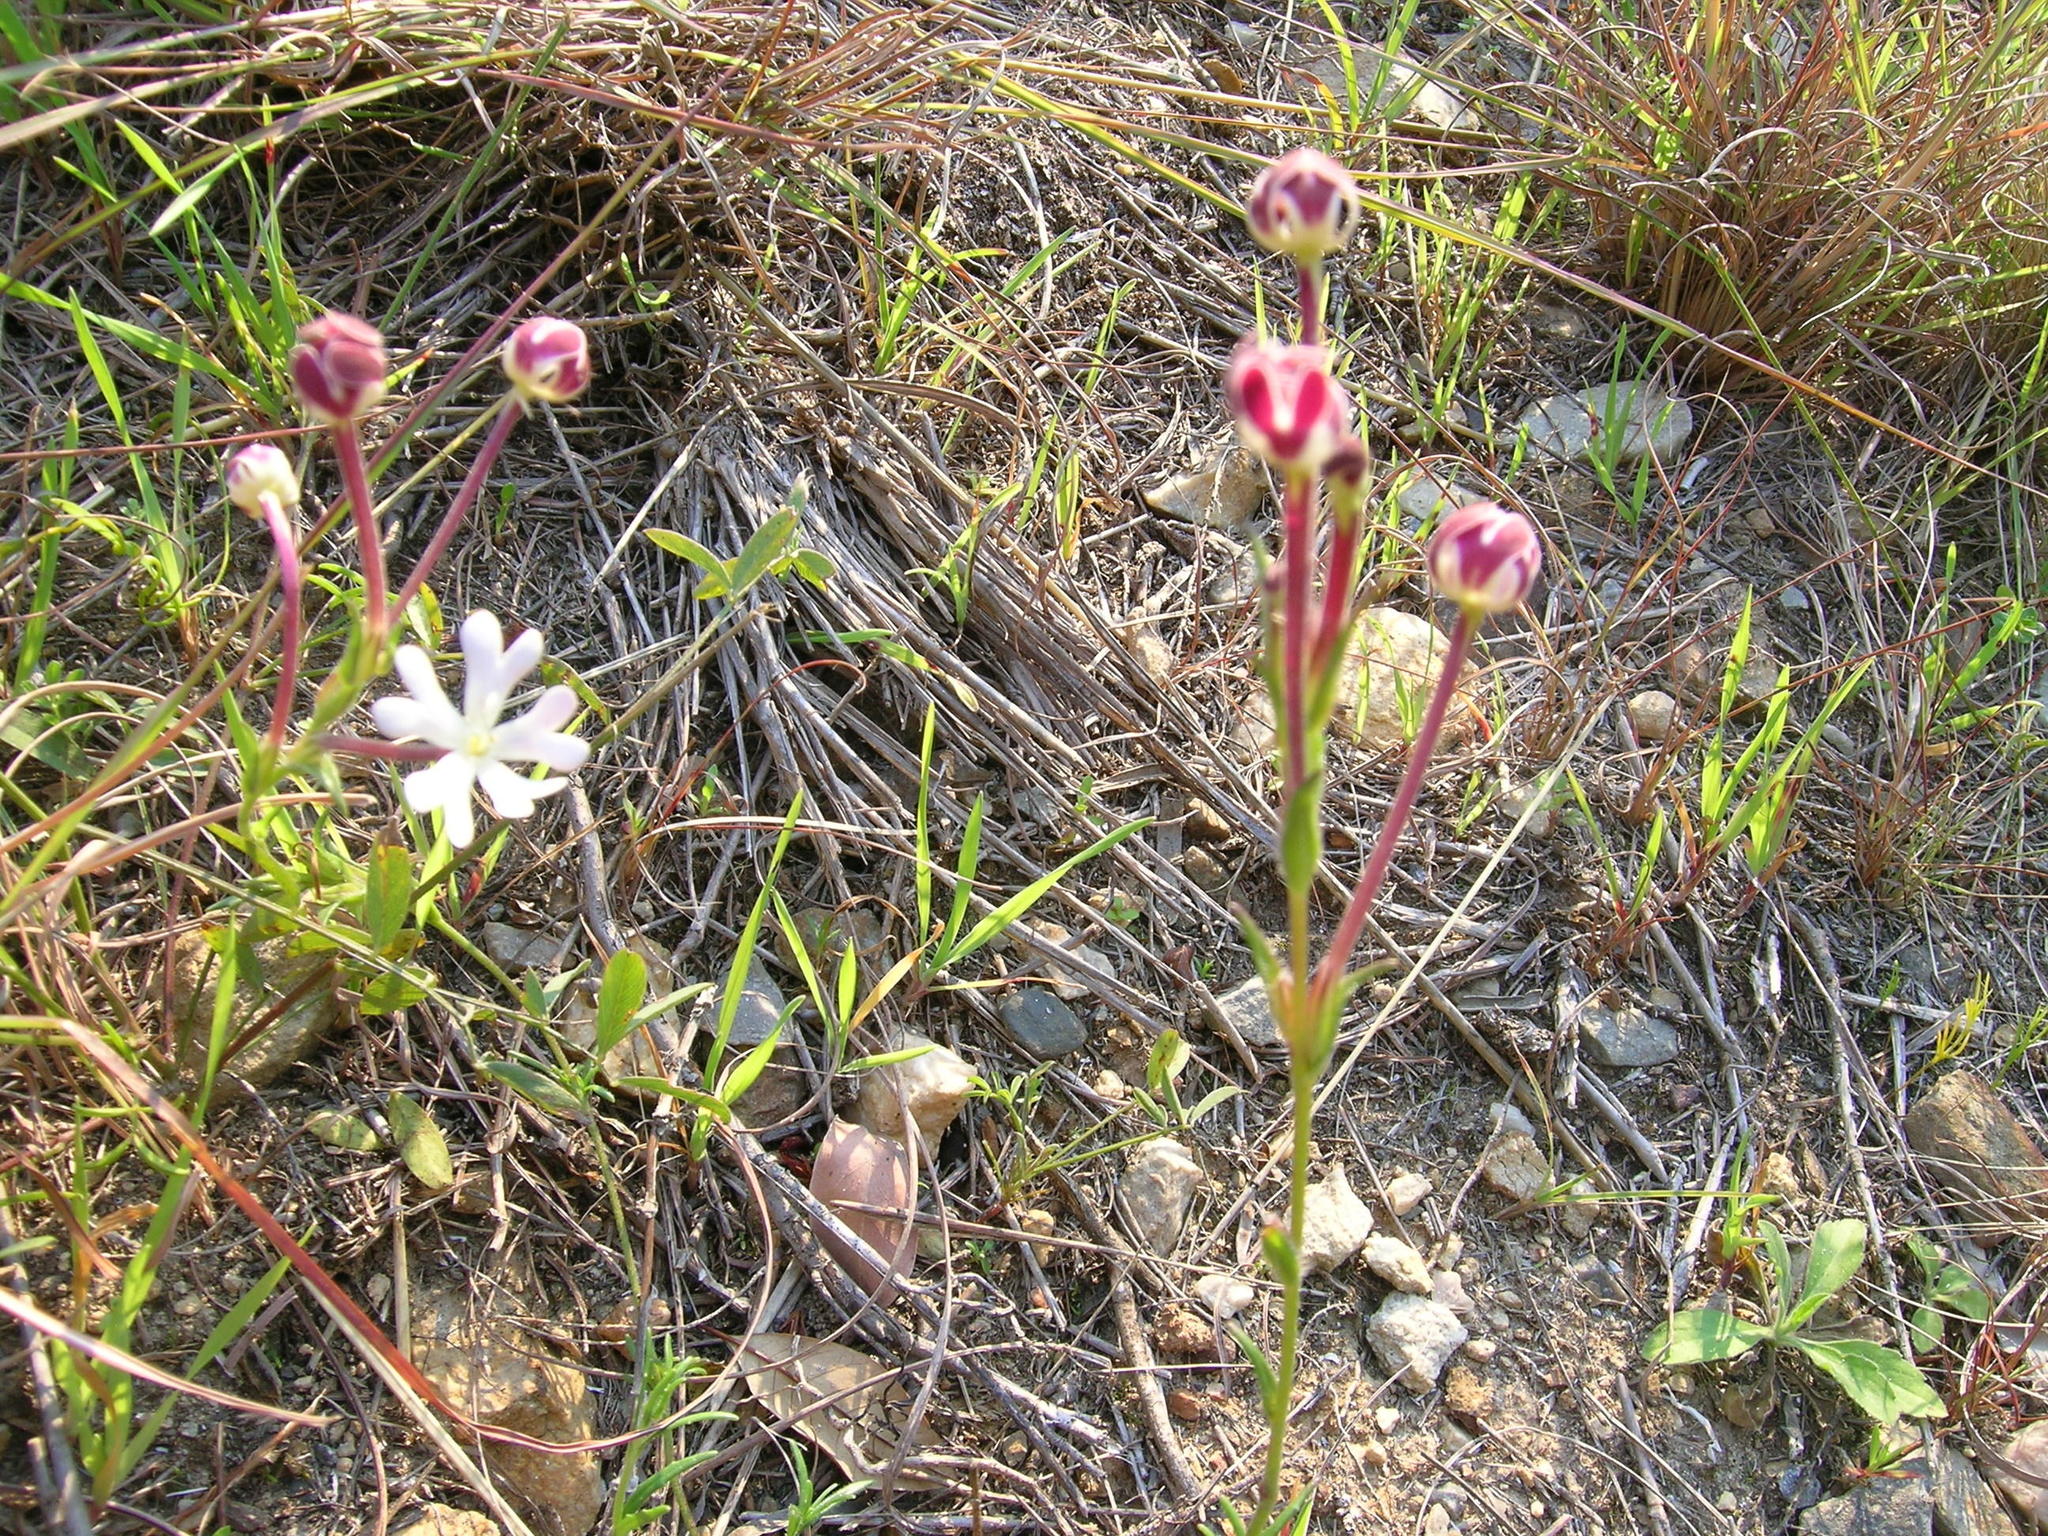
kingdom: Plantae
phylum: Tracheophyta
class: Magnoliopsida
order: Lamiales
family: Scrophulariaceae
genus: Zaluzianskya
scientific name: Zaluzianskya capensis
